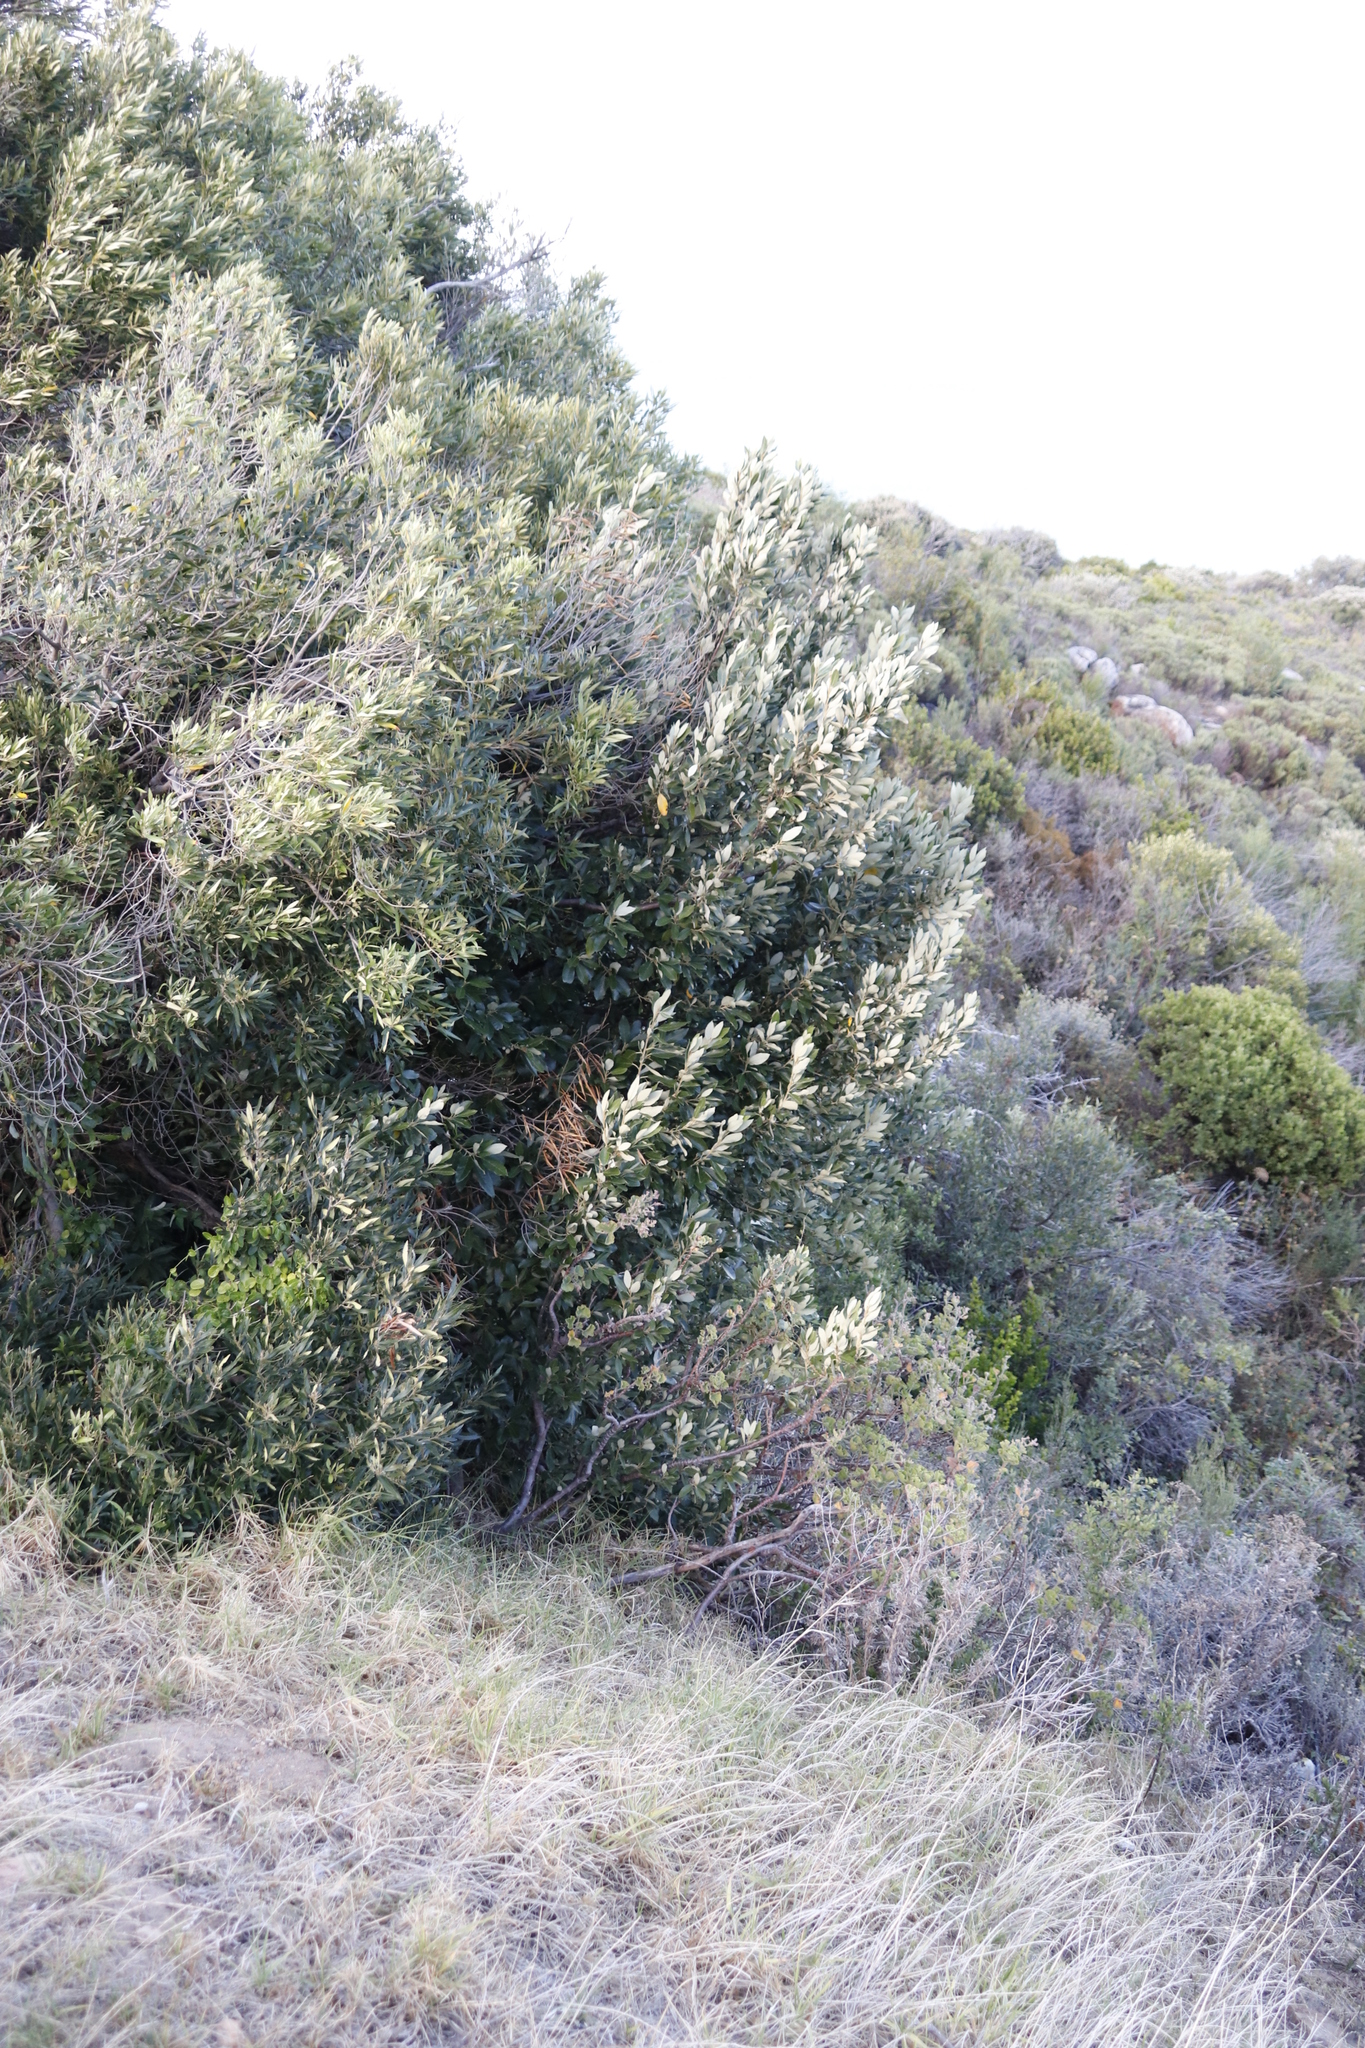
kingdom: Plantae
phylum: Tracheophyta
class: Magnoliopsida
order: Malpighiales
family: Achariaceae
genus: Kiggelaria
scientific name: Kiggelaria africana
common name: Wild peach
